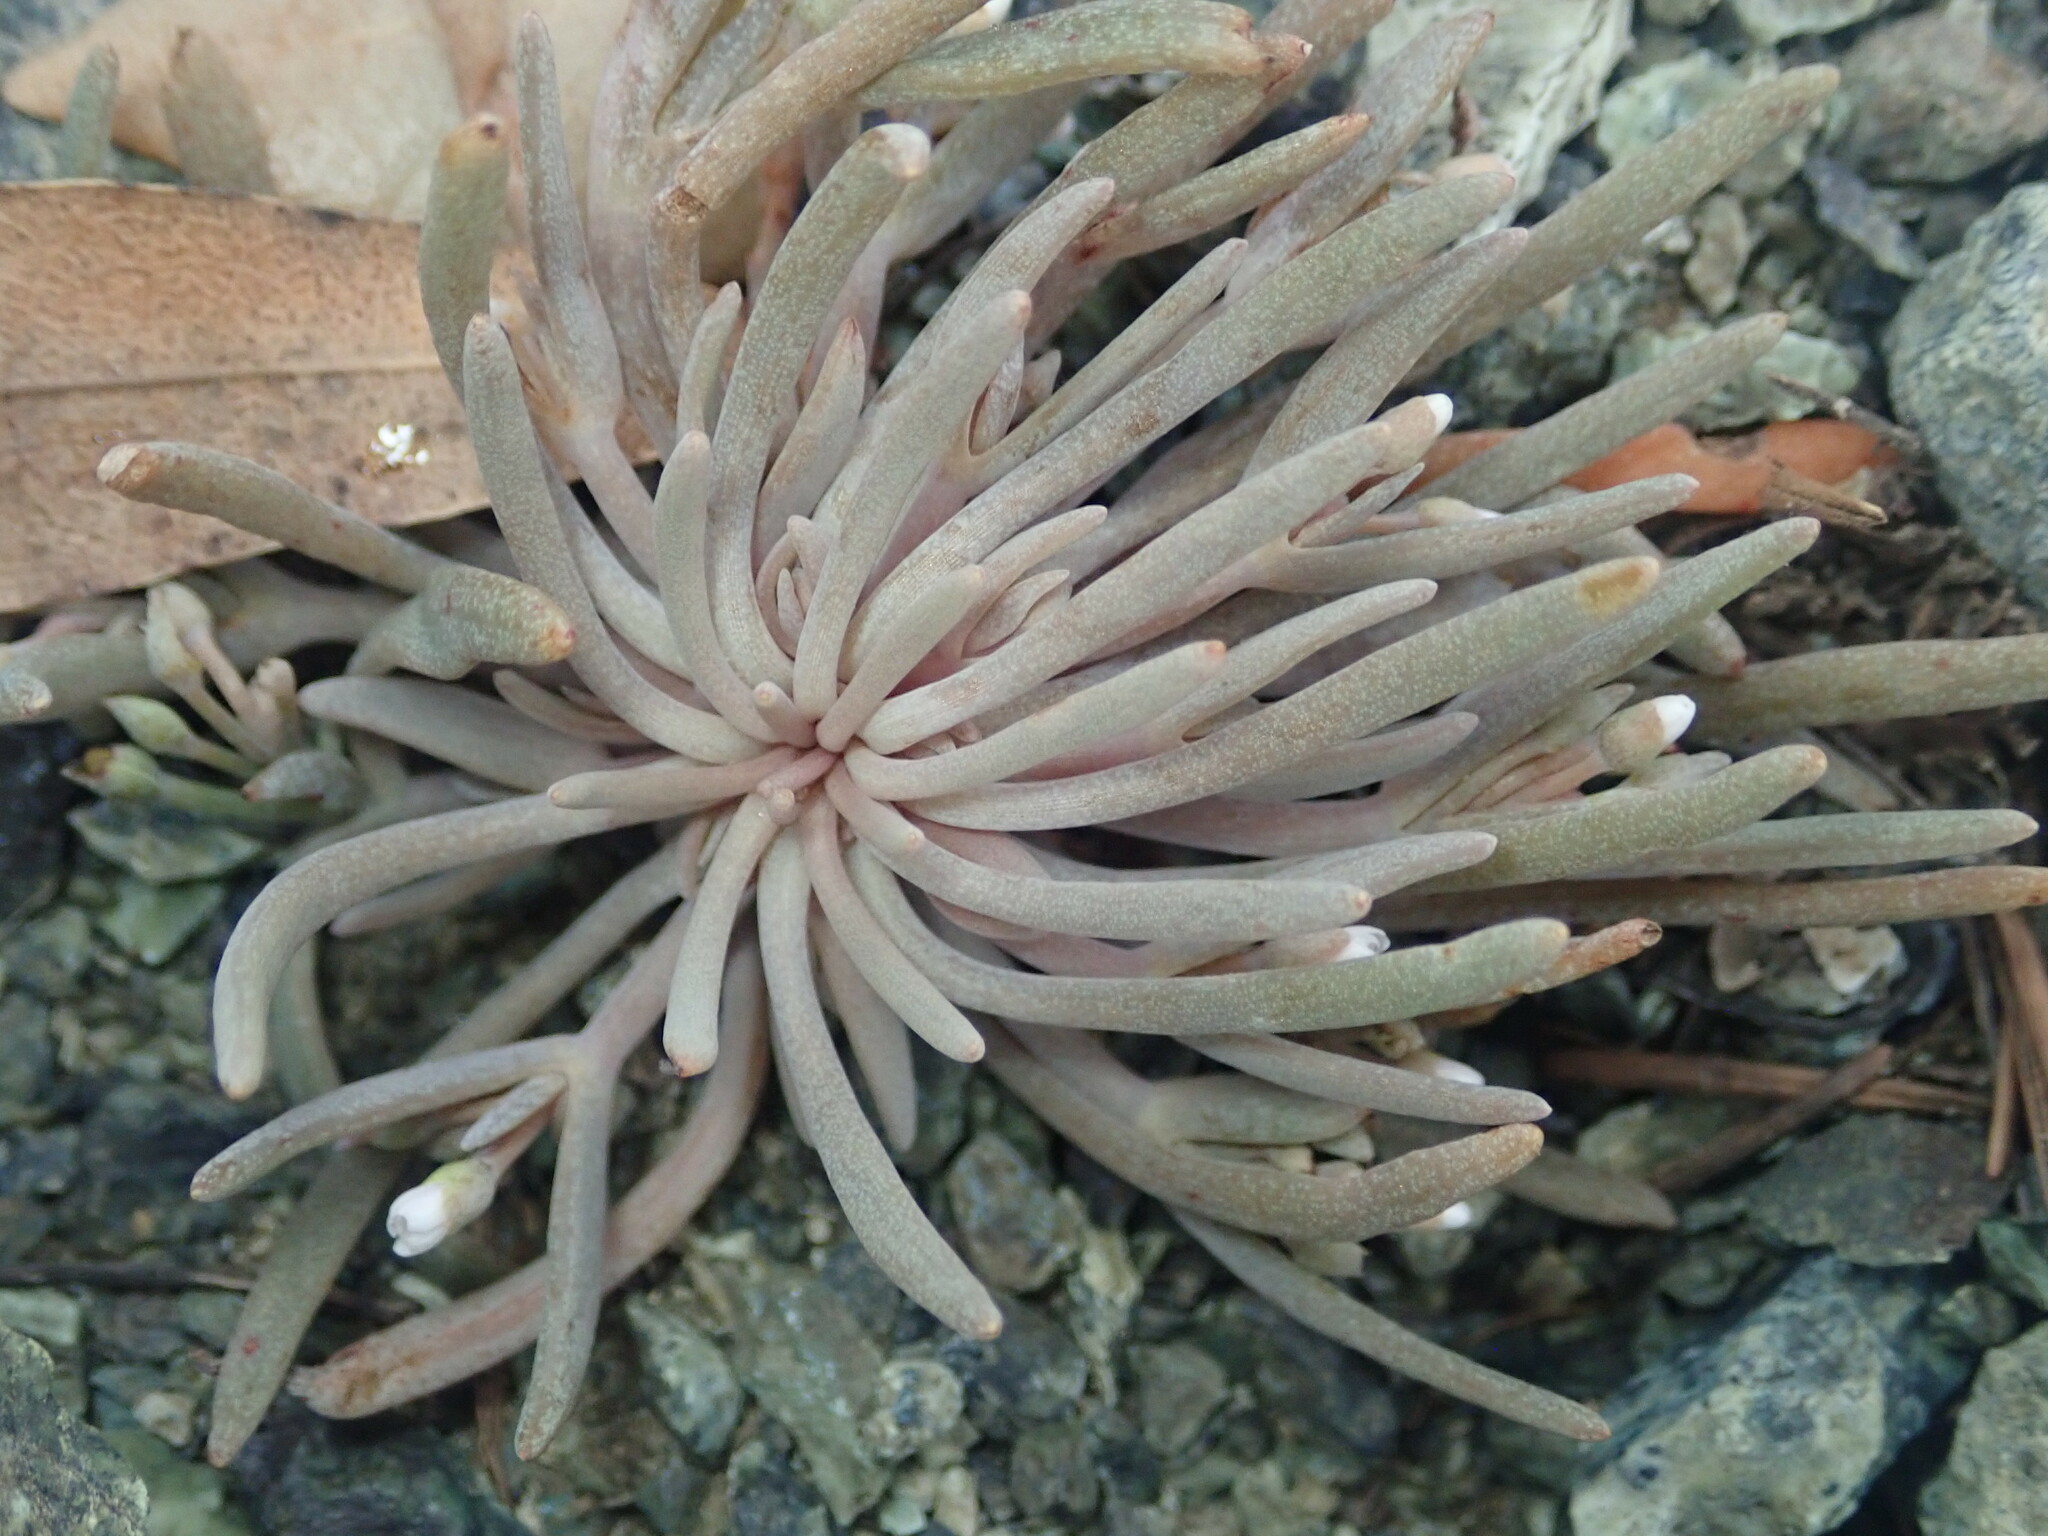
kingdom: Plantae
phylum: Tracheophyta
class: Magnoliopsida
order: Caryophyllales
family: Montiaceae
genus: Claytonia
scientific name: Claytonia exigua
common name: Pale spring beauty
